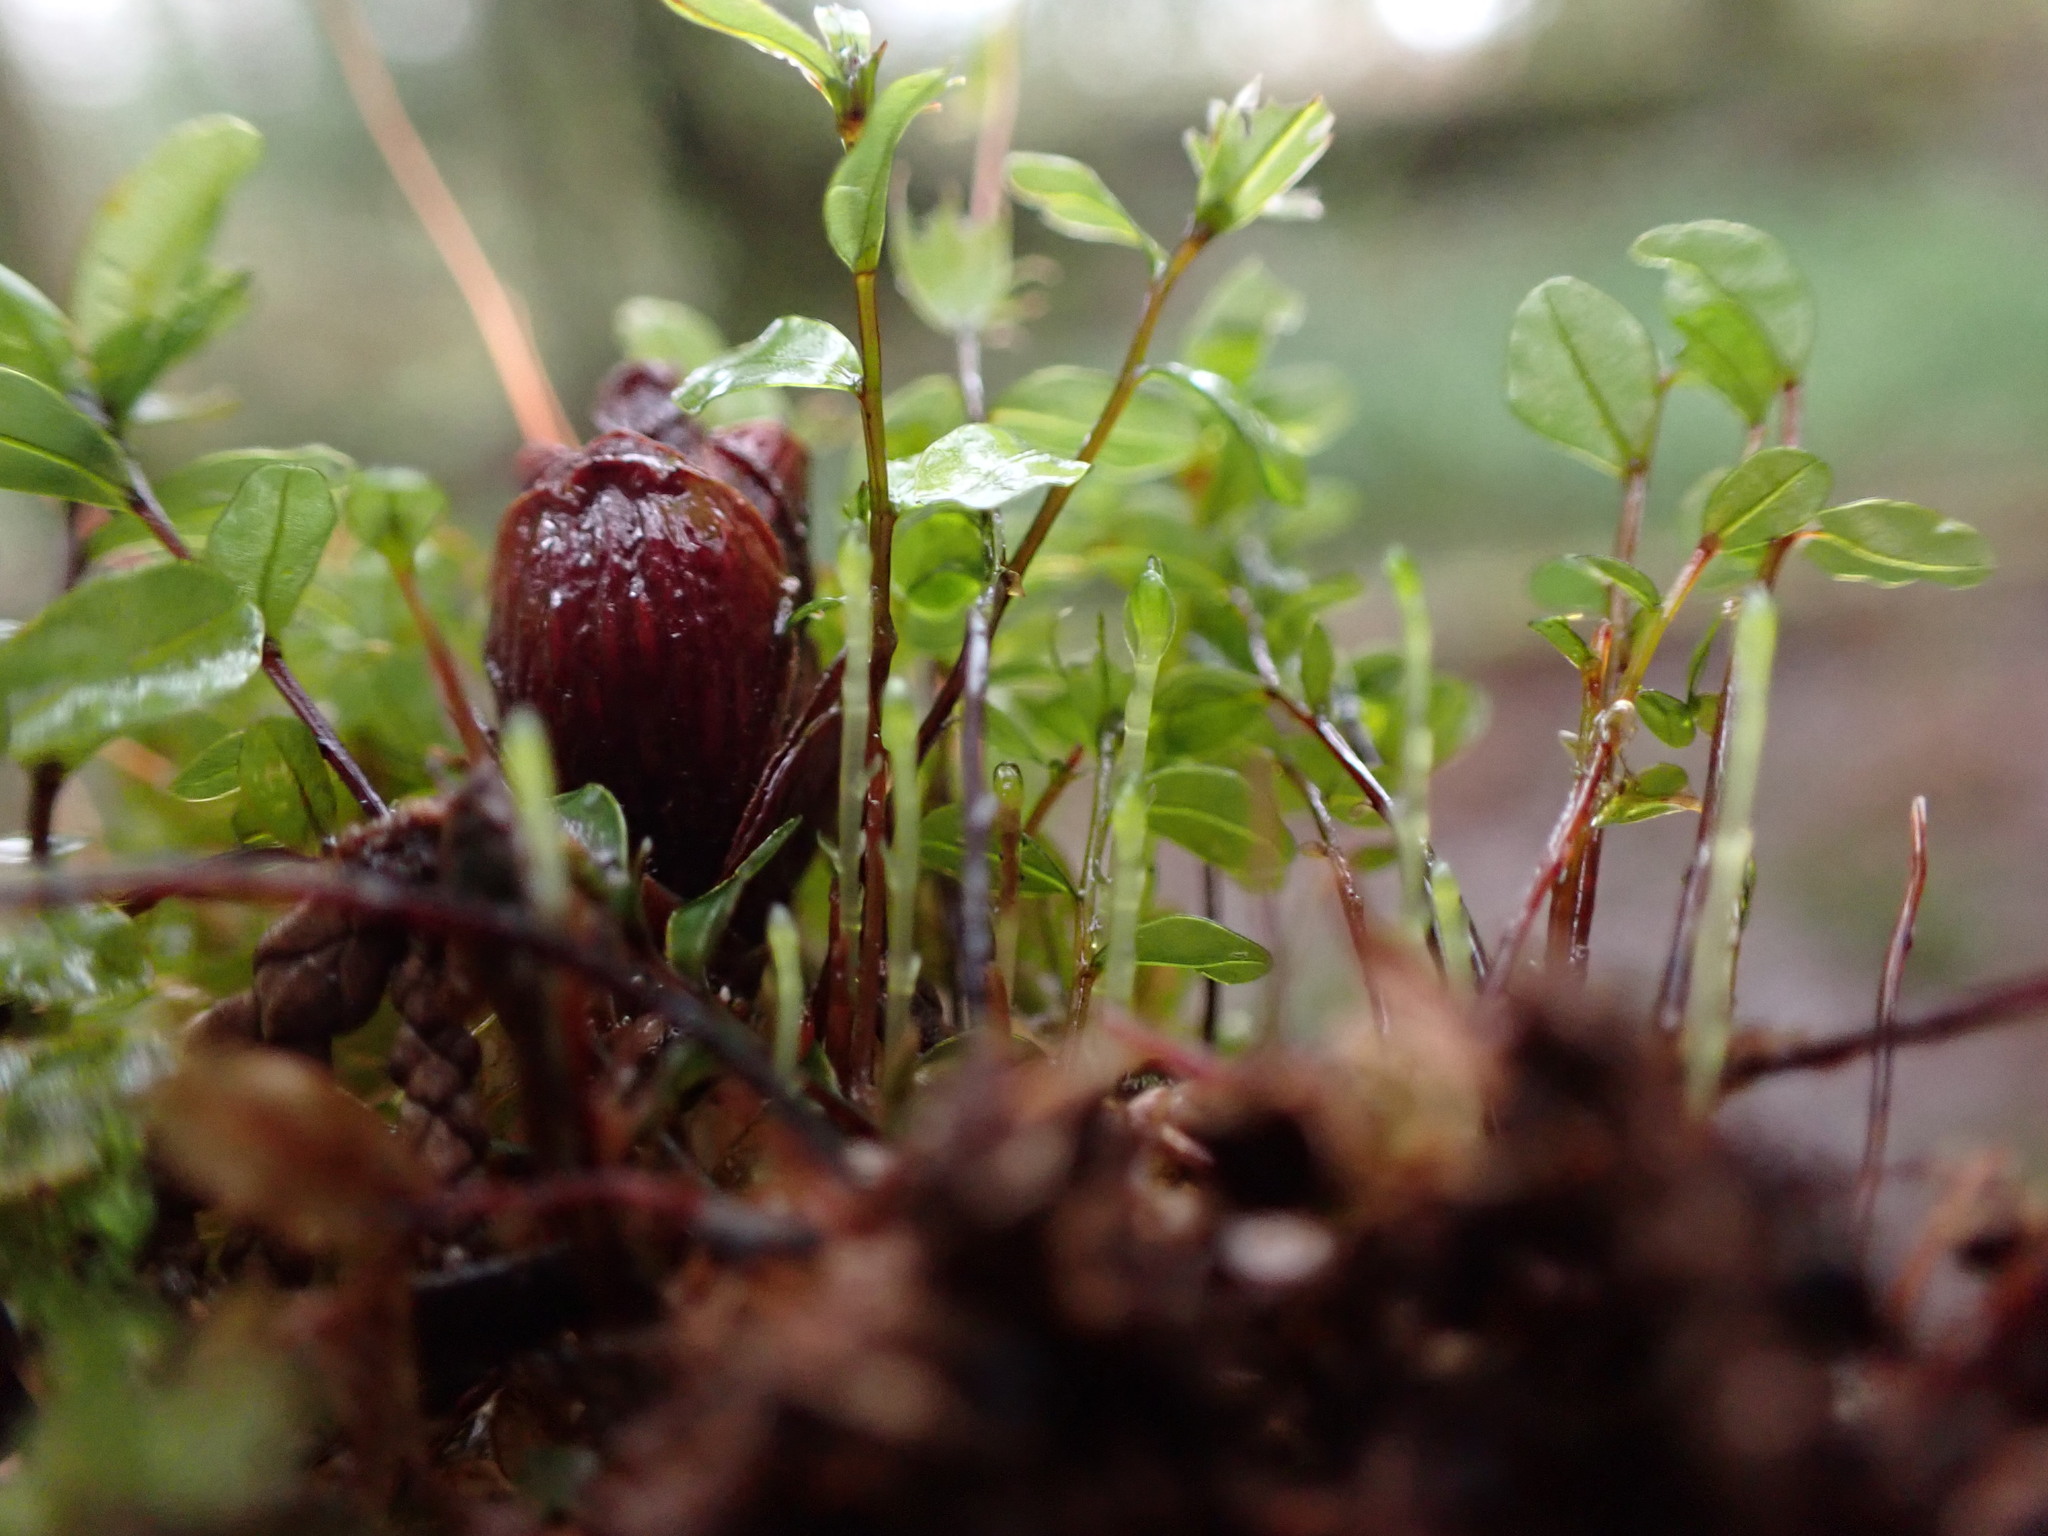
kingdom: Plantae
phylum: Bryophyta
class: Bryopsida
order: Bryales
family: Mniaceae
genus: Rhizomnium
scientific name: Rhizomnium glabrescens
